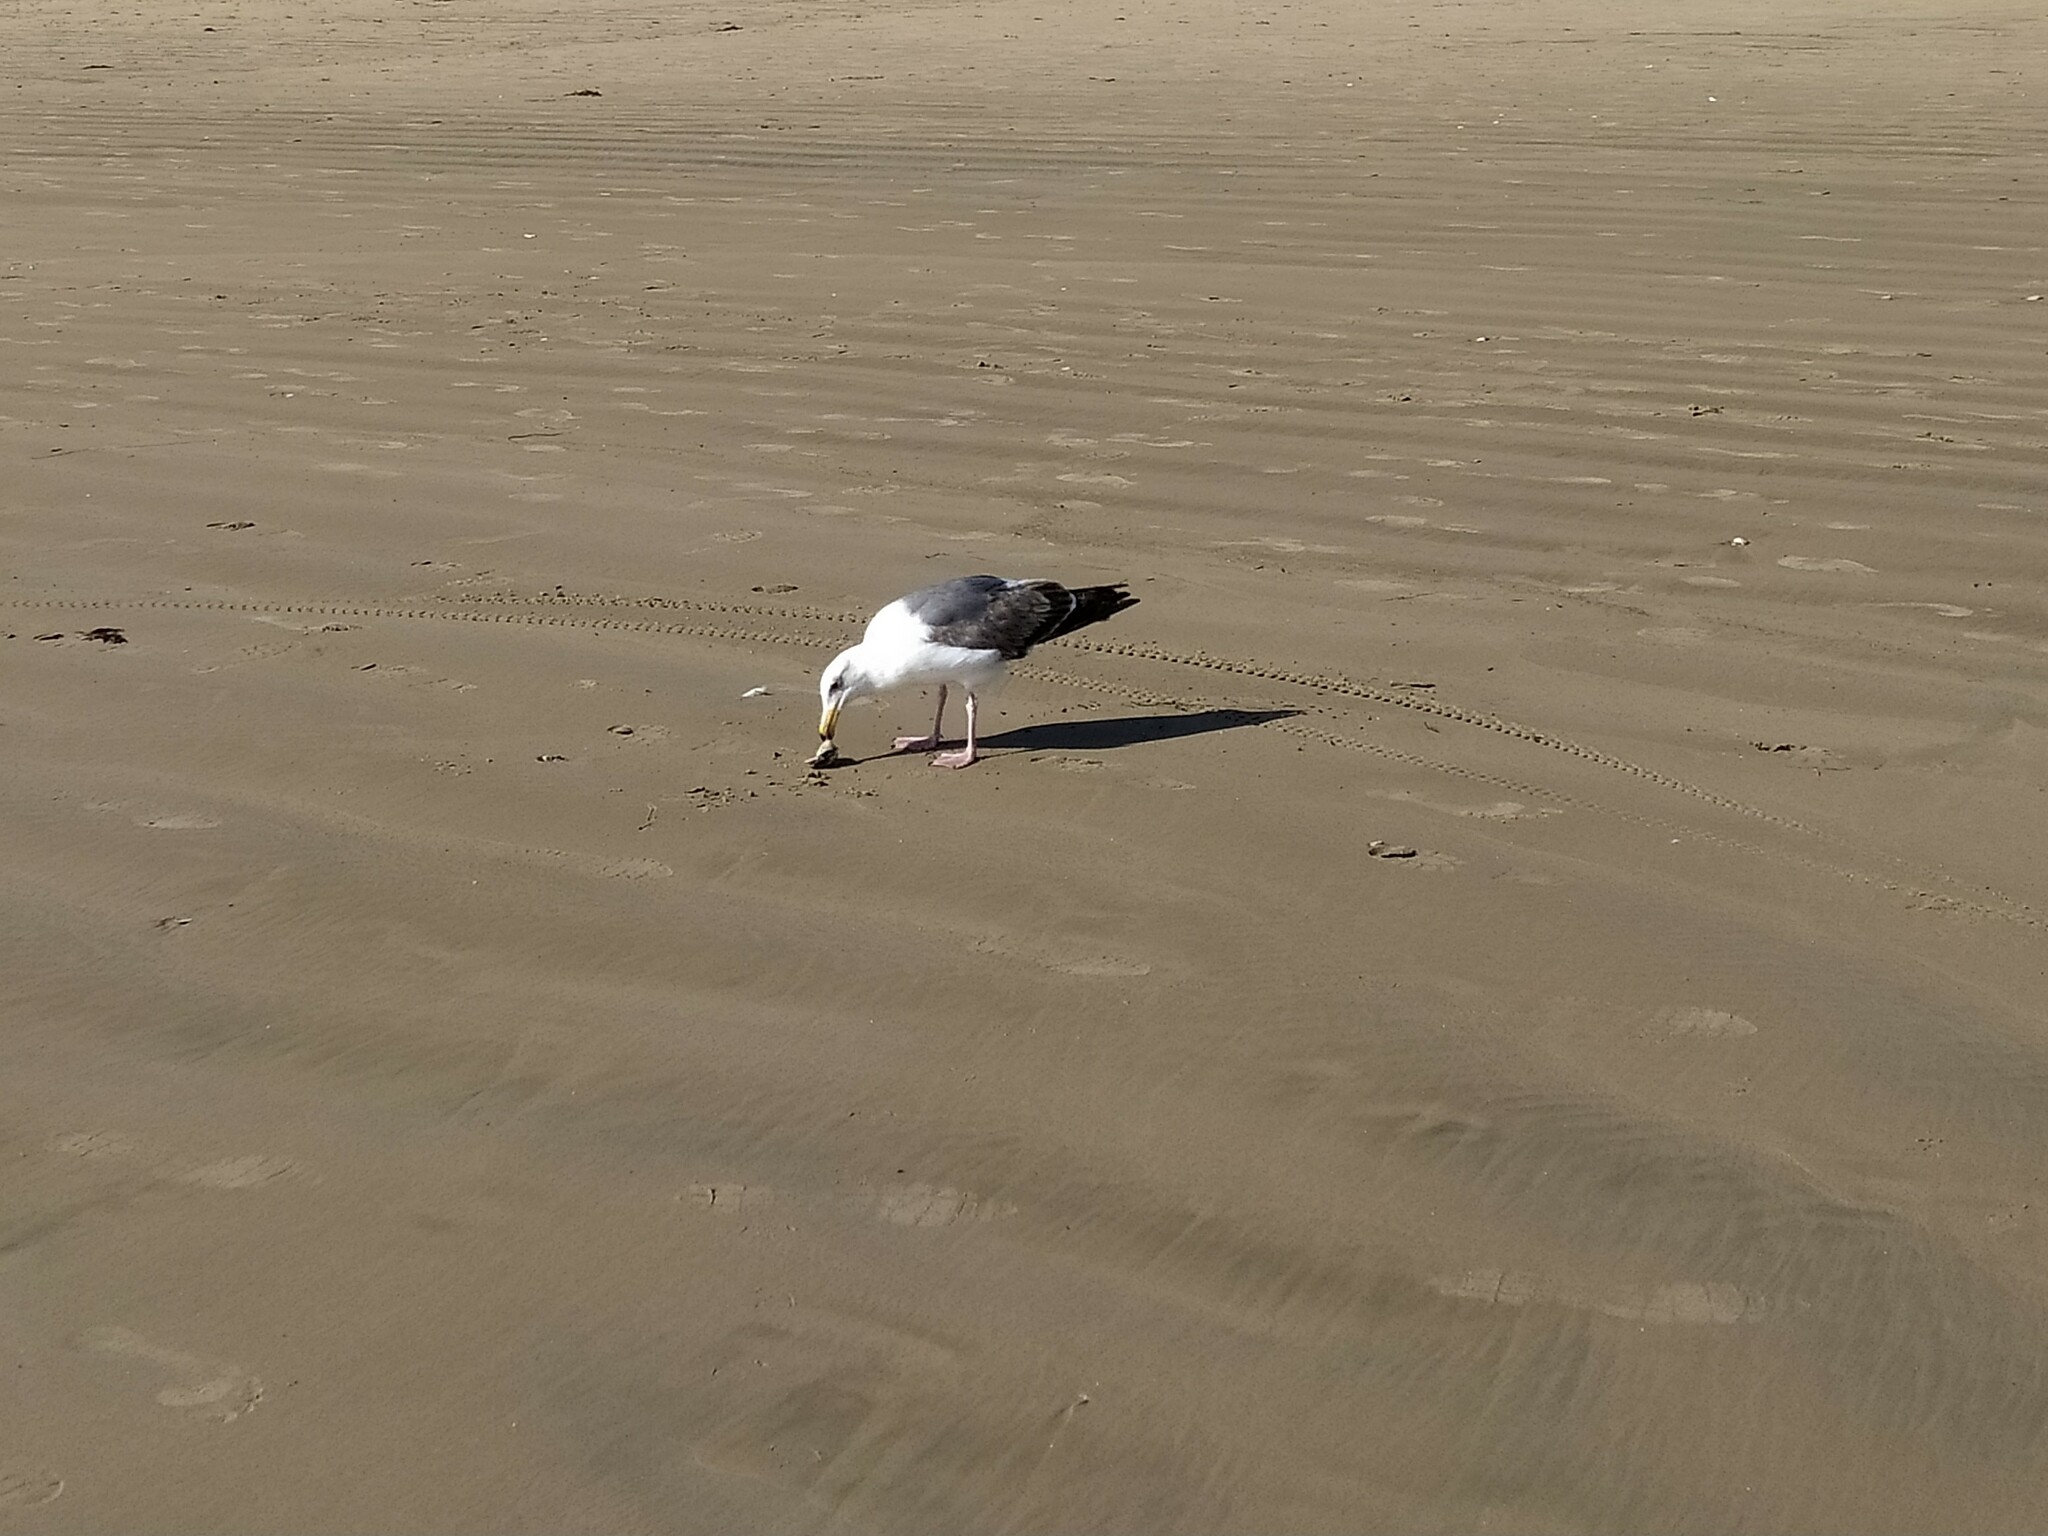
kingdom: Animalia
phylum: Chordata
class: Aves
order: Charadriiformes
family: Laridae
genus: Larus
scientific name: Larus occidentalis
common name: Western gull
